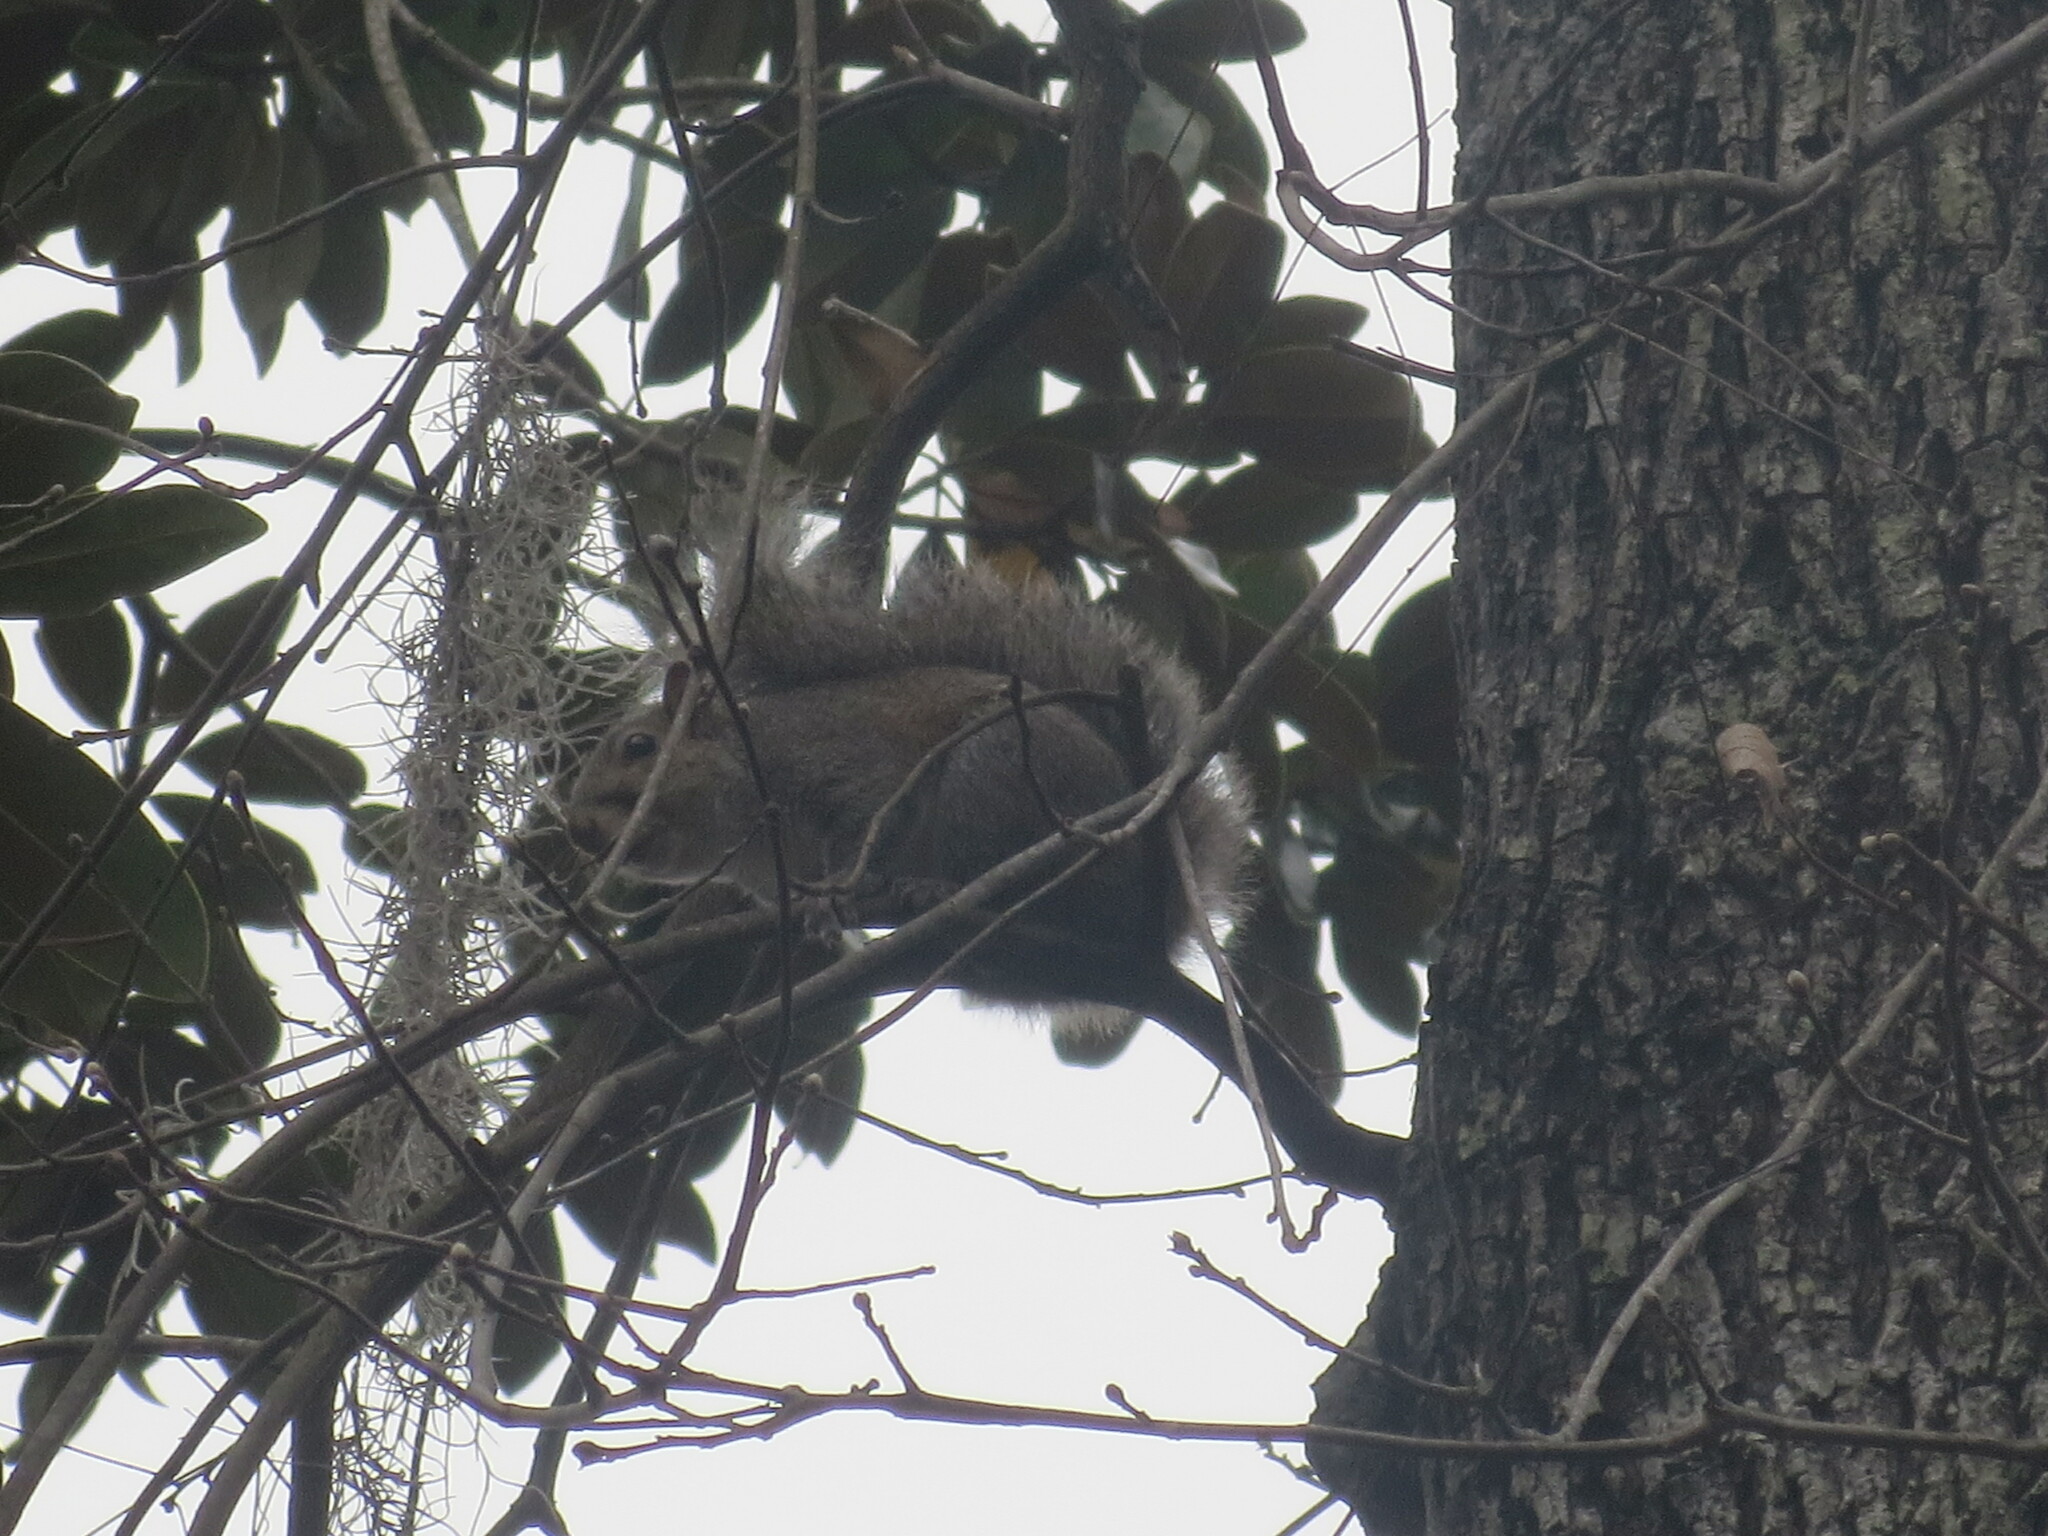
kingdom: Animalia
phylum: Chordata
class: Mammalia
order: Rodentia
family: Sciuridae
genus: Sciurus
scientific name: Sciurus carolinensis
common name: Eastern gray squirrel
